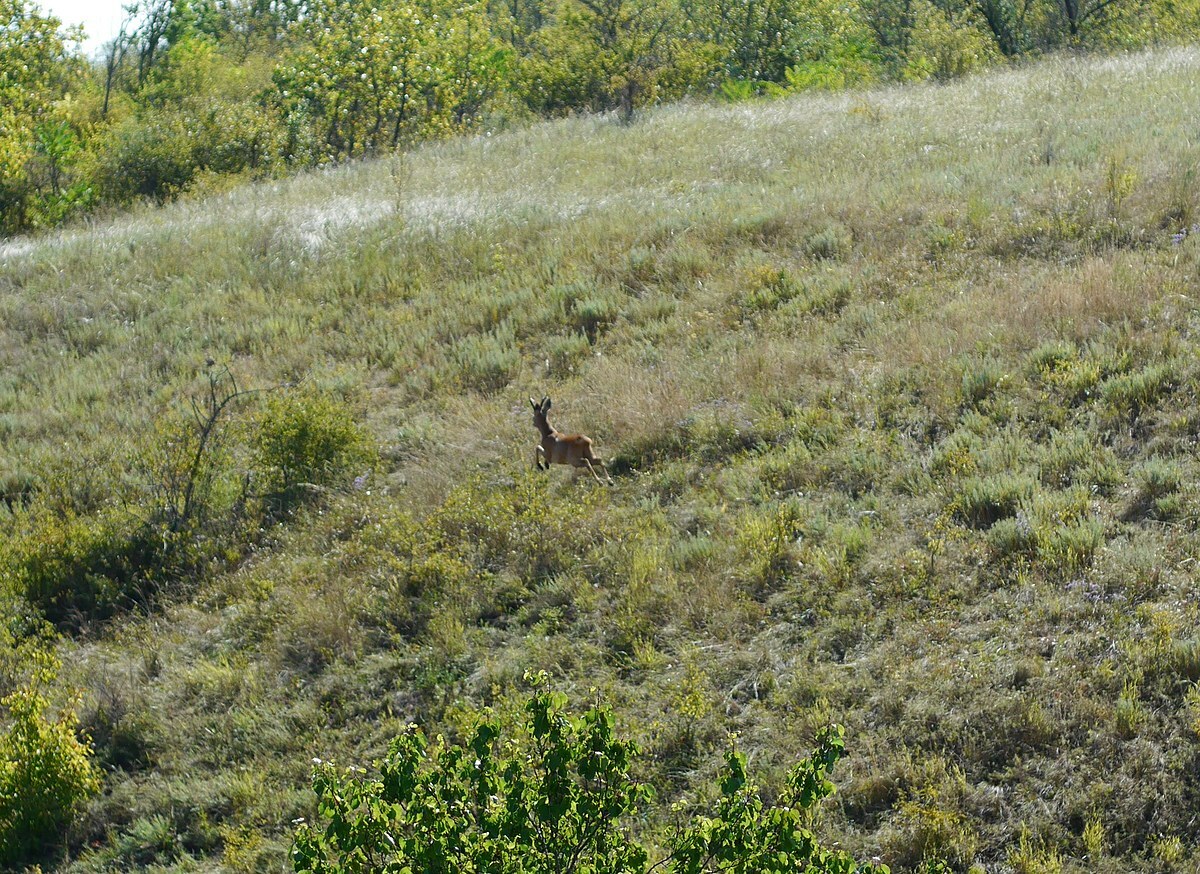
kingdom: Animalia
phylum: Chordata
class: Mammalia
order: Artiodactyla
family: Cervidae
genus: Capreolus
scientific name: Capreolus capreolus
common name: Western roe deer
